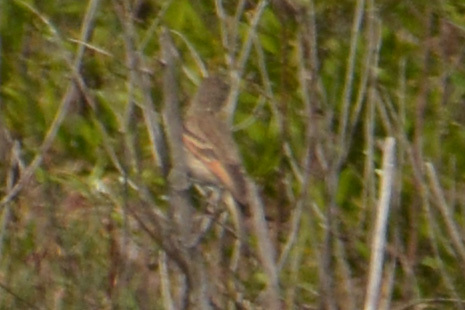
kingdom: Animalia
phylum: Chordata
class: Aves
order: Passeriformes
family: Tyrannidae
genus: Hymenops
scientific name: Hymenops perspicillatus
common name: Spectacled tyrant
